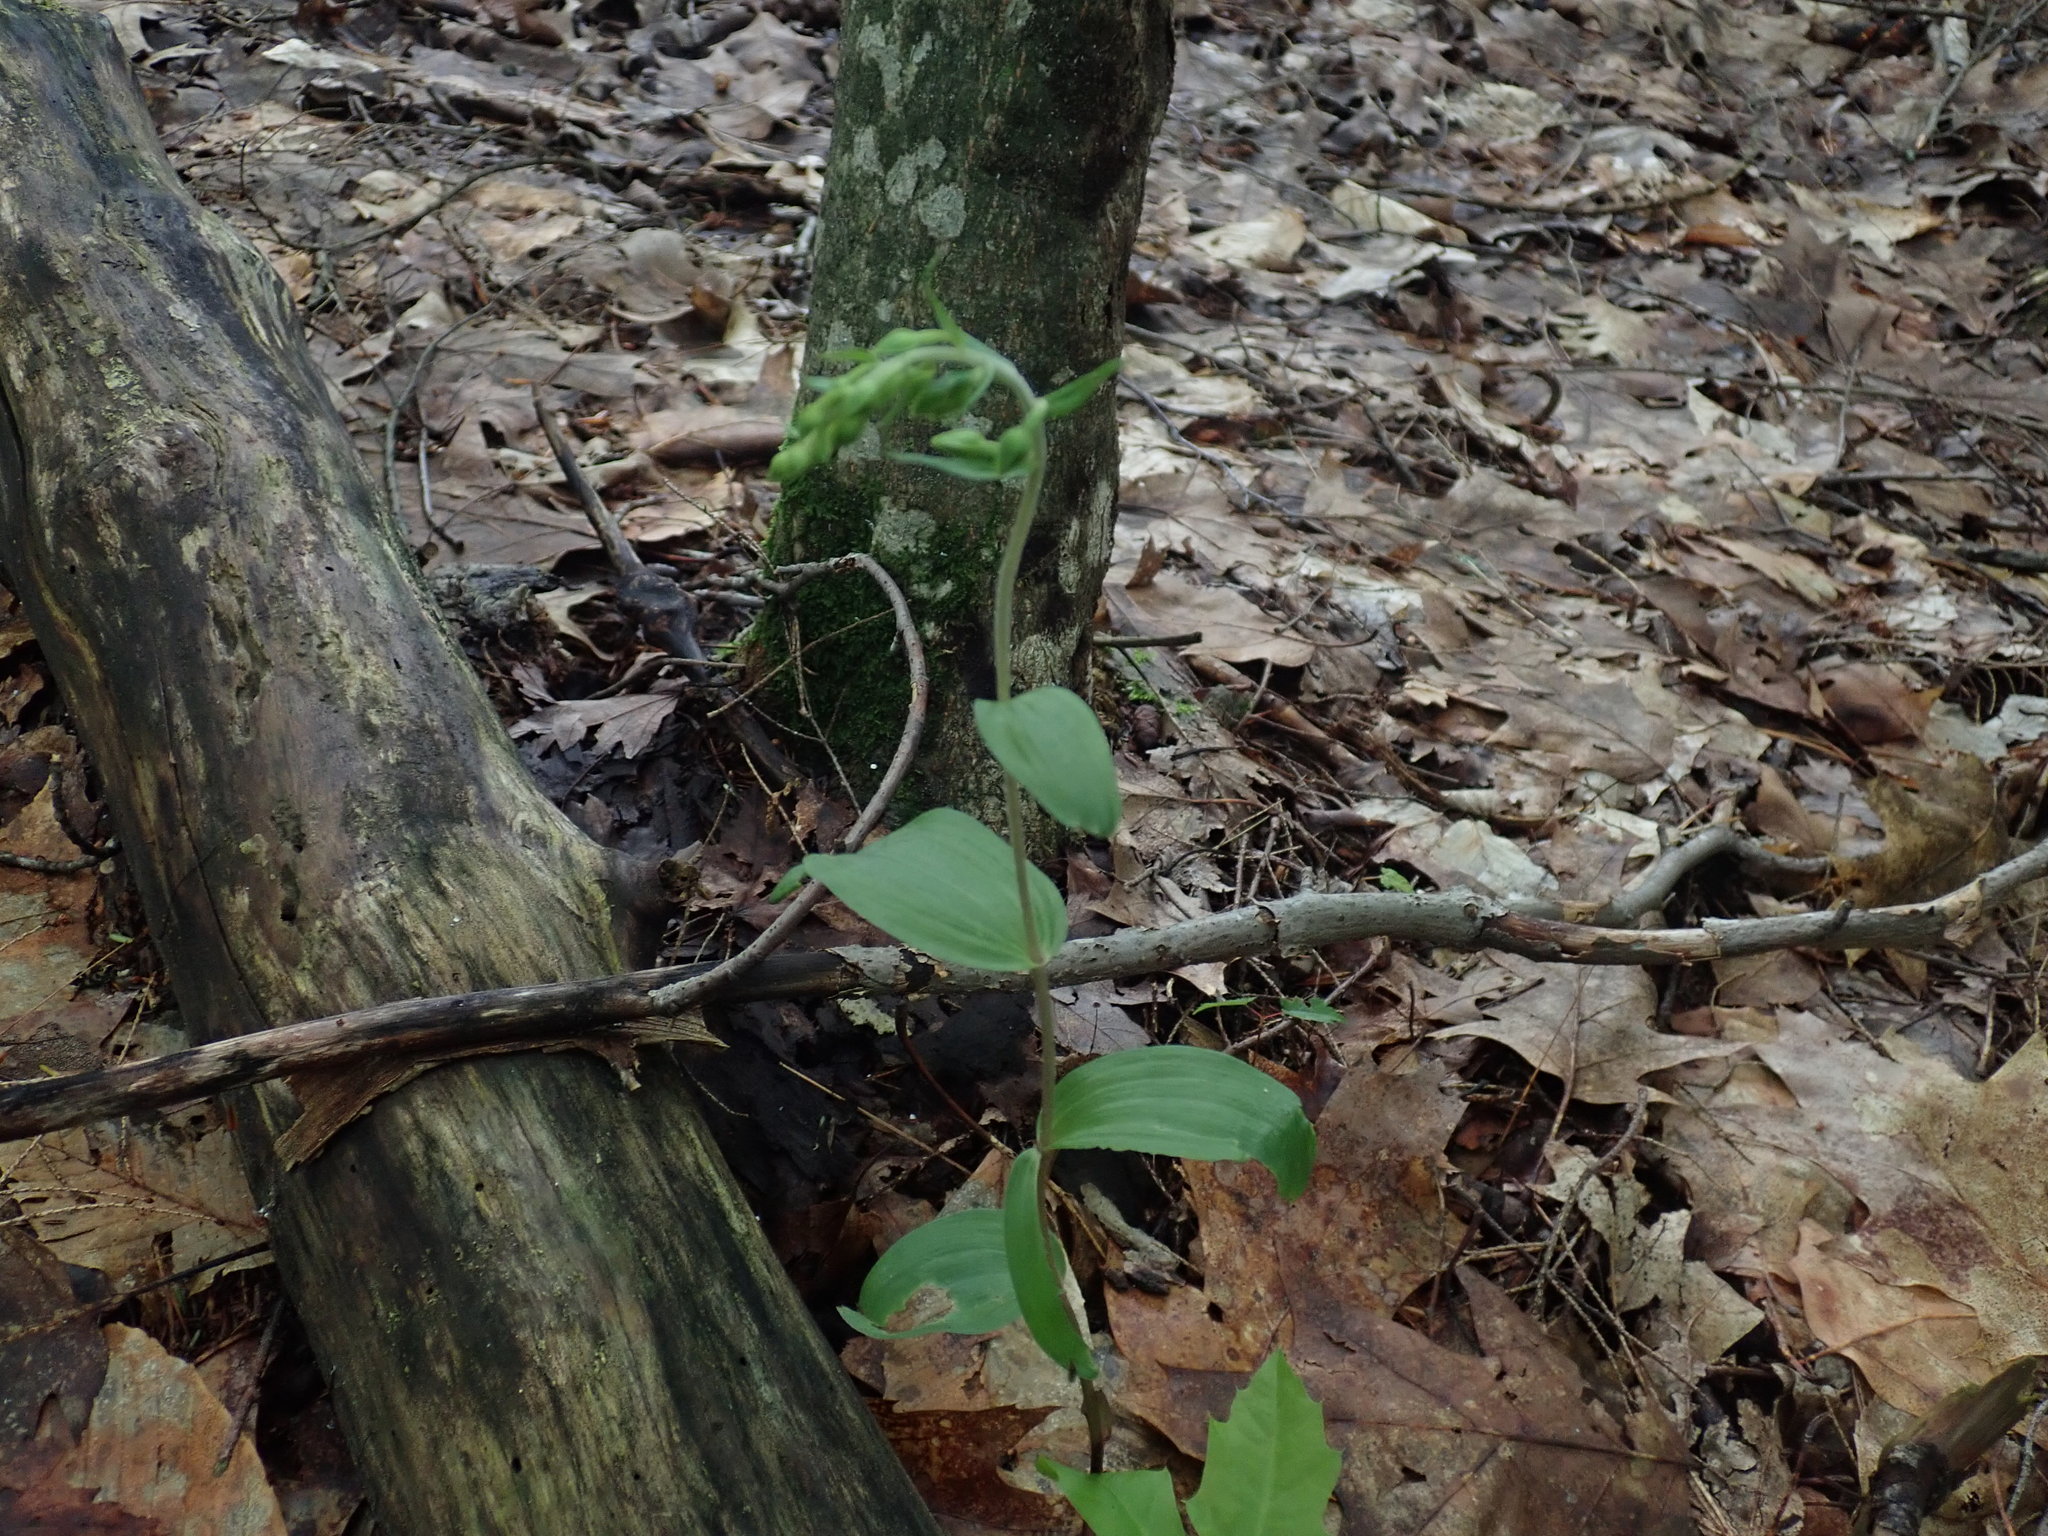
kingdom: Plantae
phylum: Tracheophyta
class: Liliopsida
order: Asparagales
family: Orchidaceae
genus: Epipactis
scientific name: Epipactis helleborine
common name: Broad-leaved helleborine
